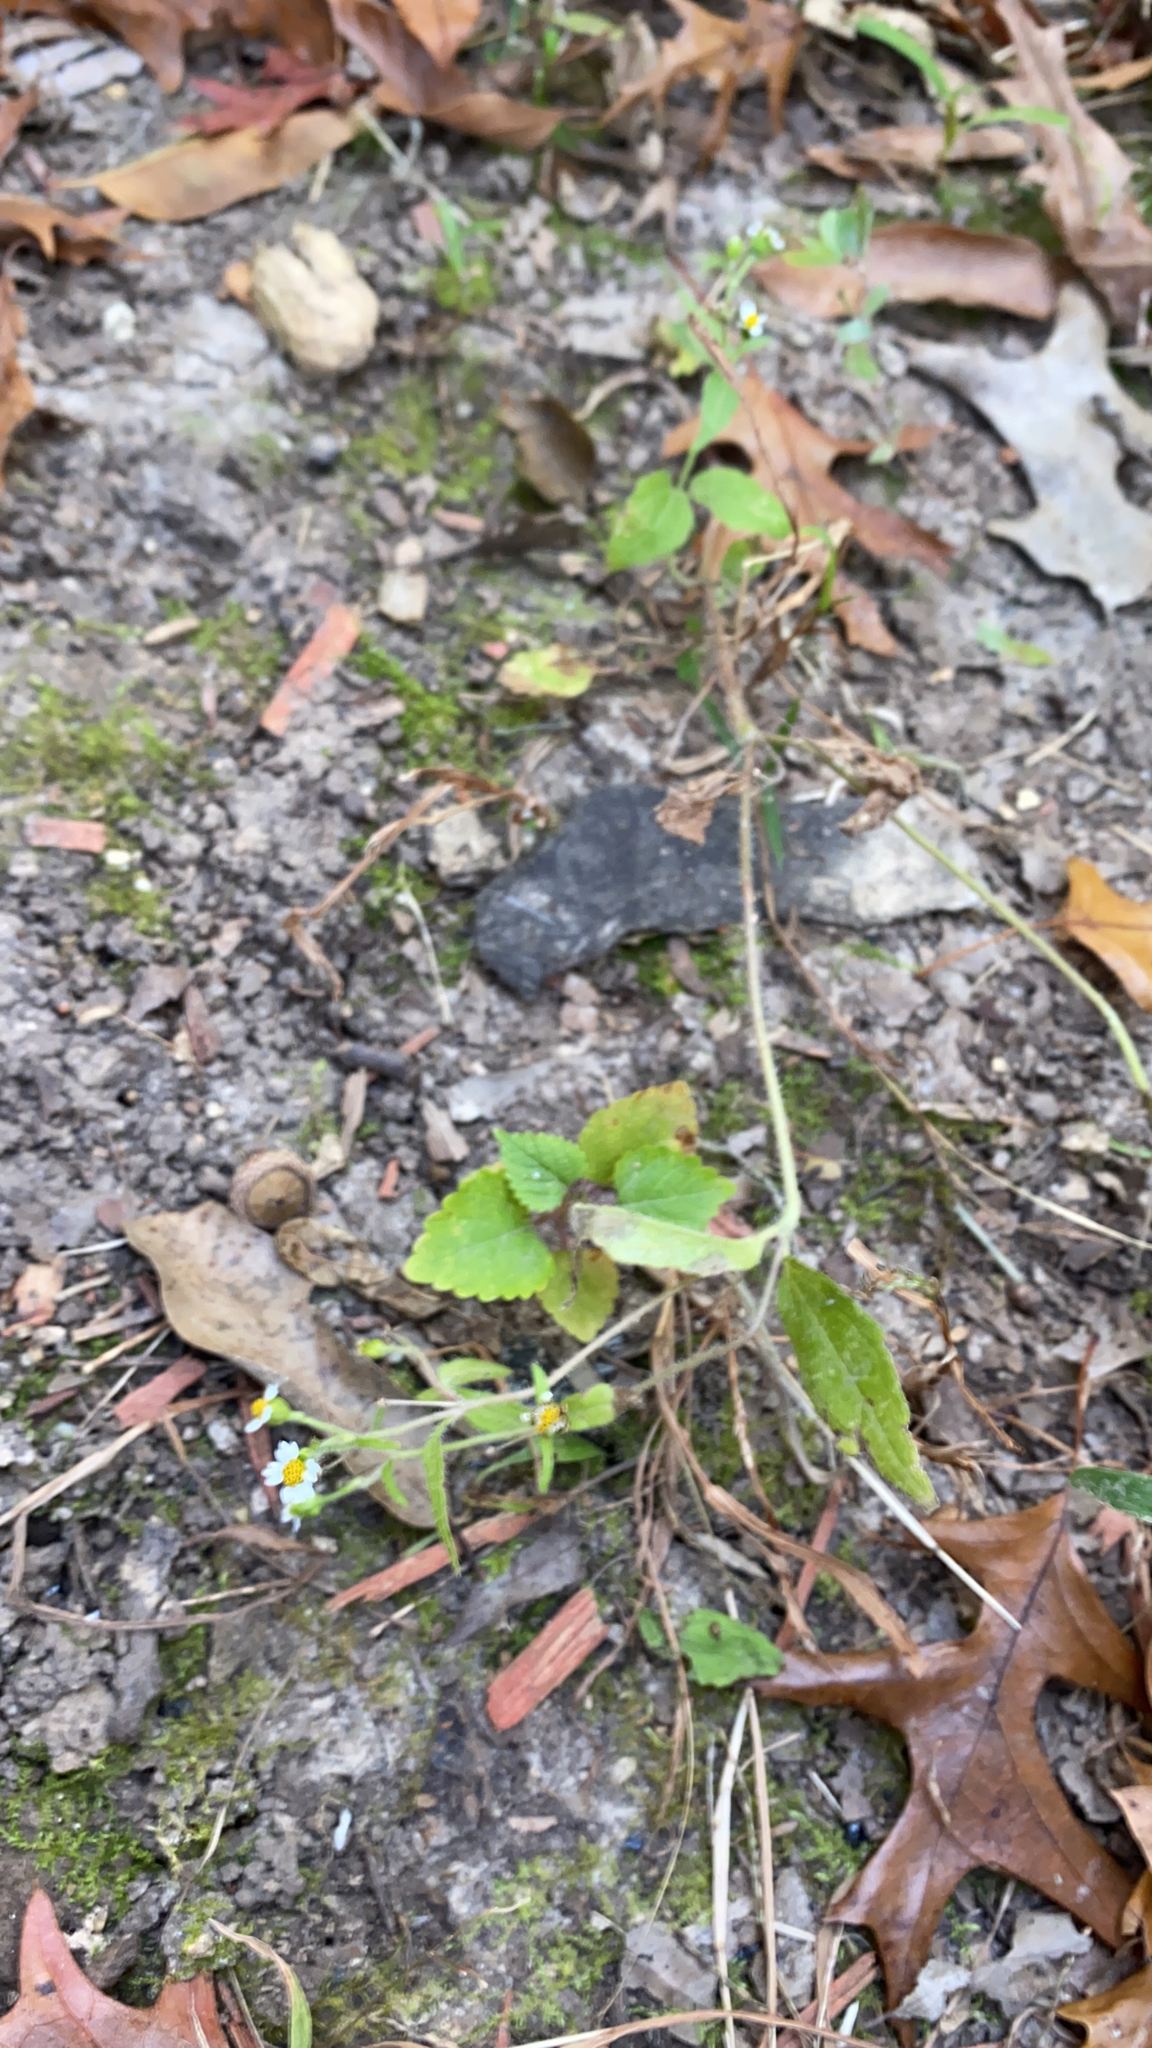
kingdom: Plantae
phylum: Tracheophyta
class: Magnoliopsida
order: Asterales
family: Asteraceae
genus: Galinsoga
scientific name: Galinsoga quadriradiata
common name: Shaggy soldier
